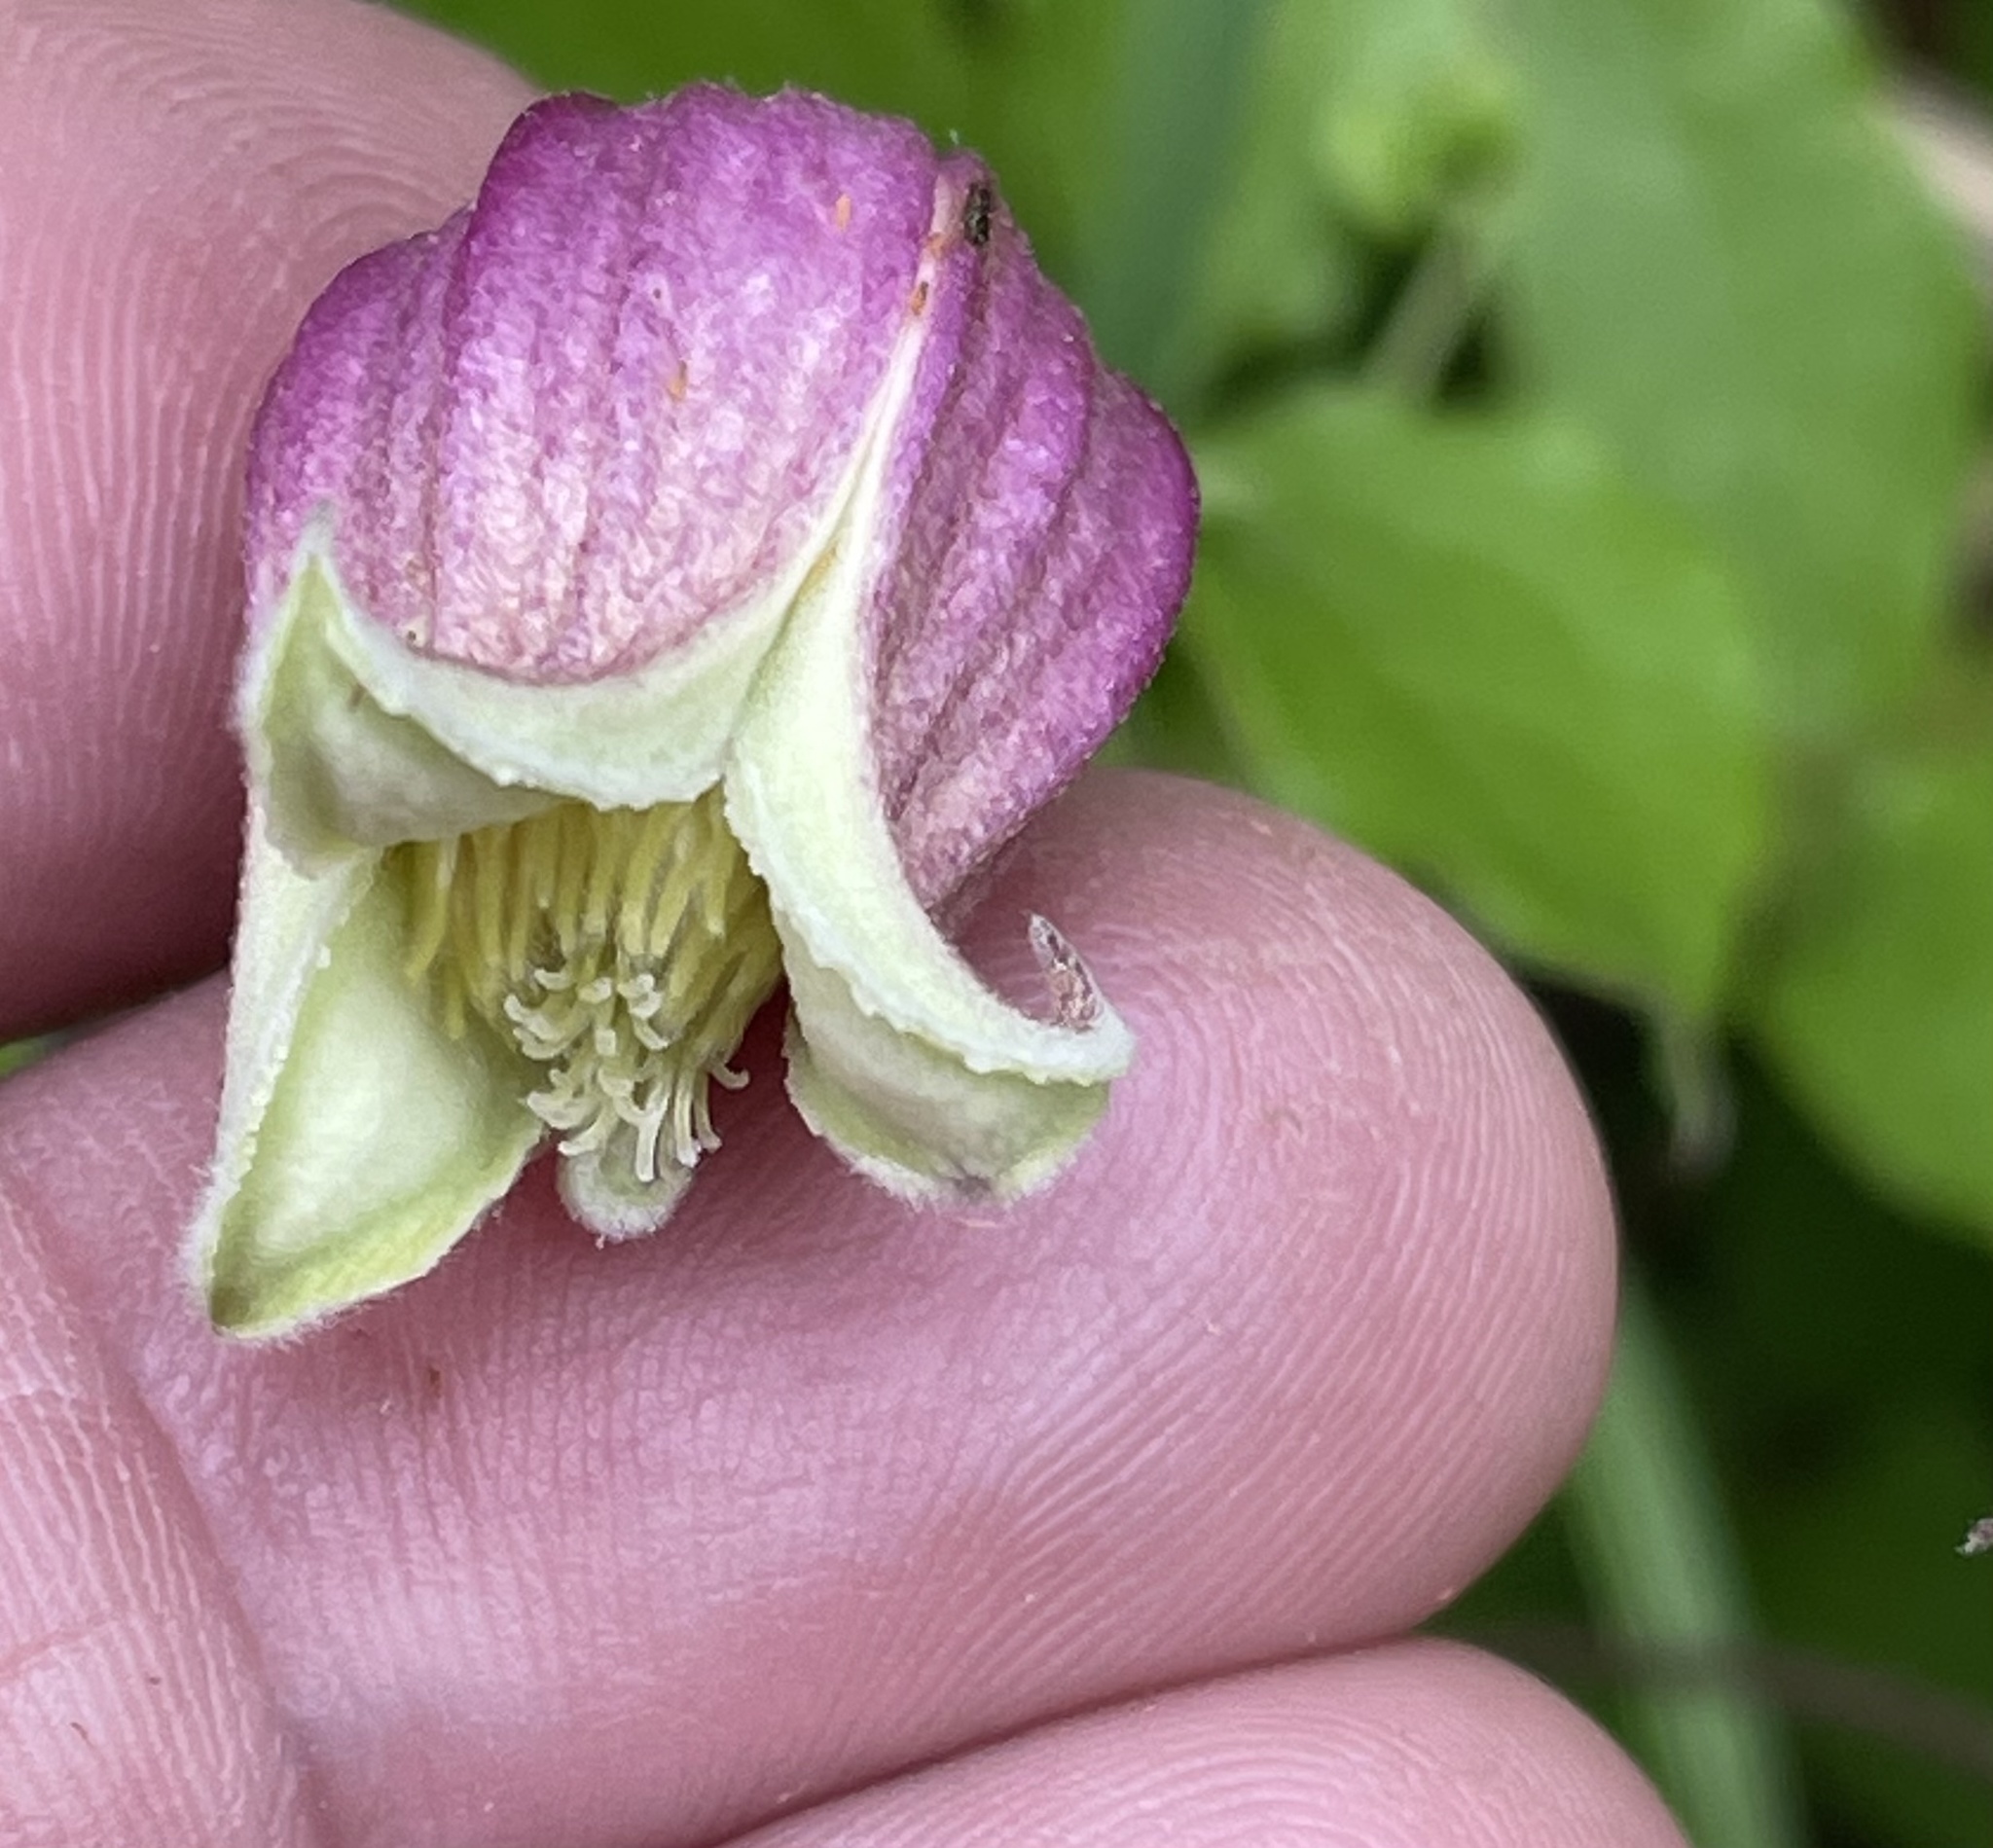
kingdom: Plantae
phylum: Tracheophyta
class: Magnoliopsida
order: Ranunculales
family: Ranunculaceae
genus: Clematis
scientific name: Clematis viorna
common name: Leather-flower
